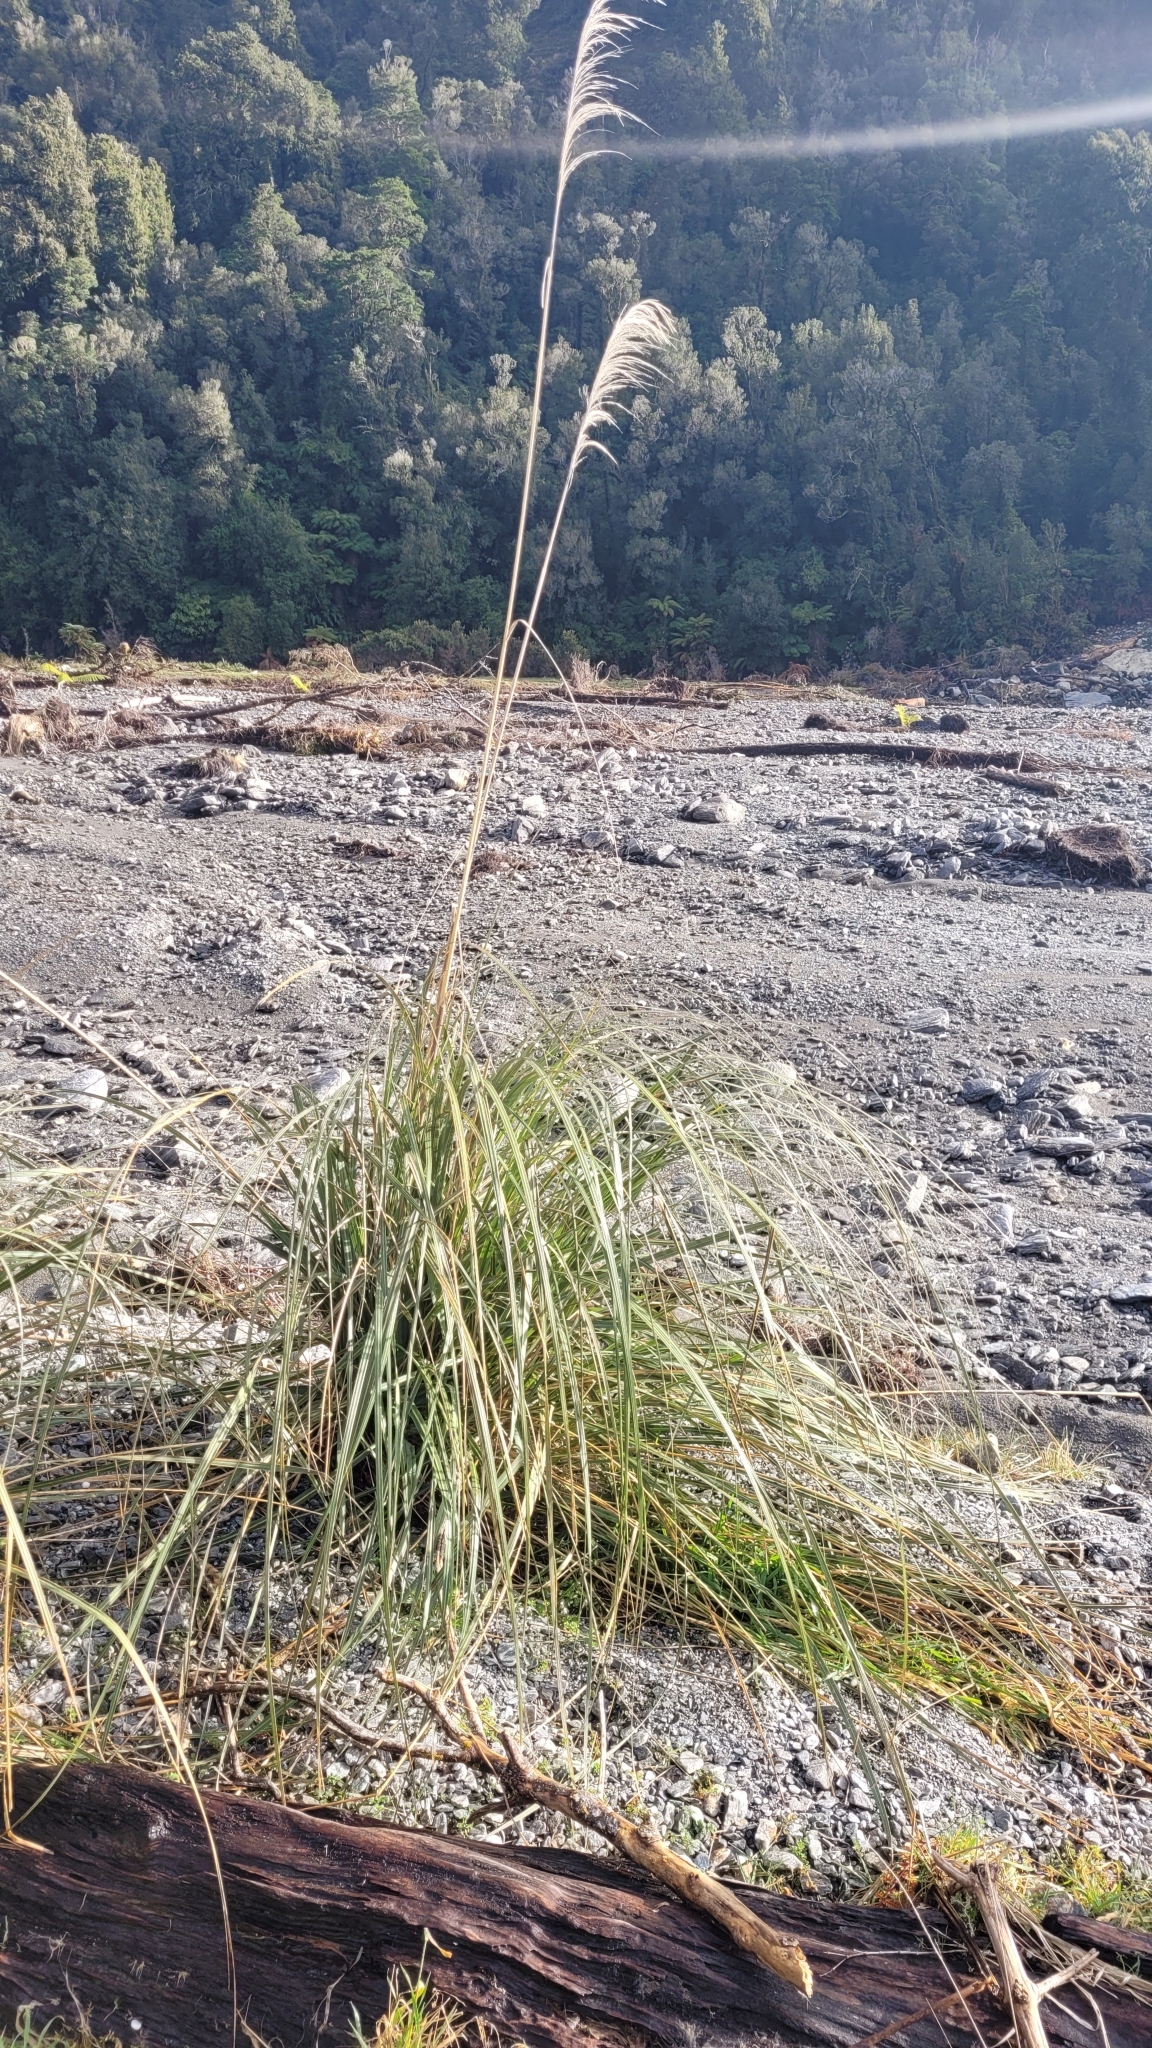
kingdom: Plantae
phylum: Tracheophyta
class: Liliopsida
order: Poales
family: Poaceae
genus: Austroderia
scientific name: Austroderia richardii
